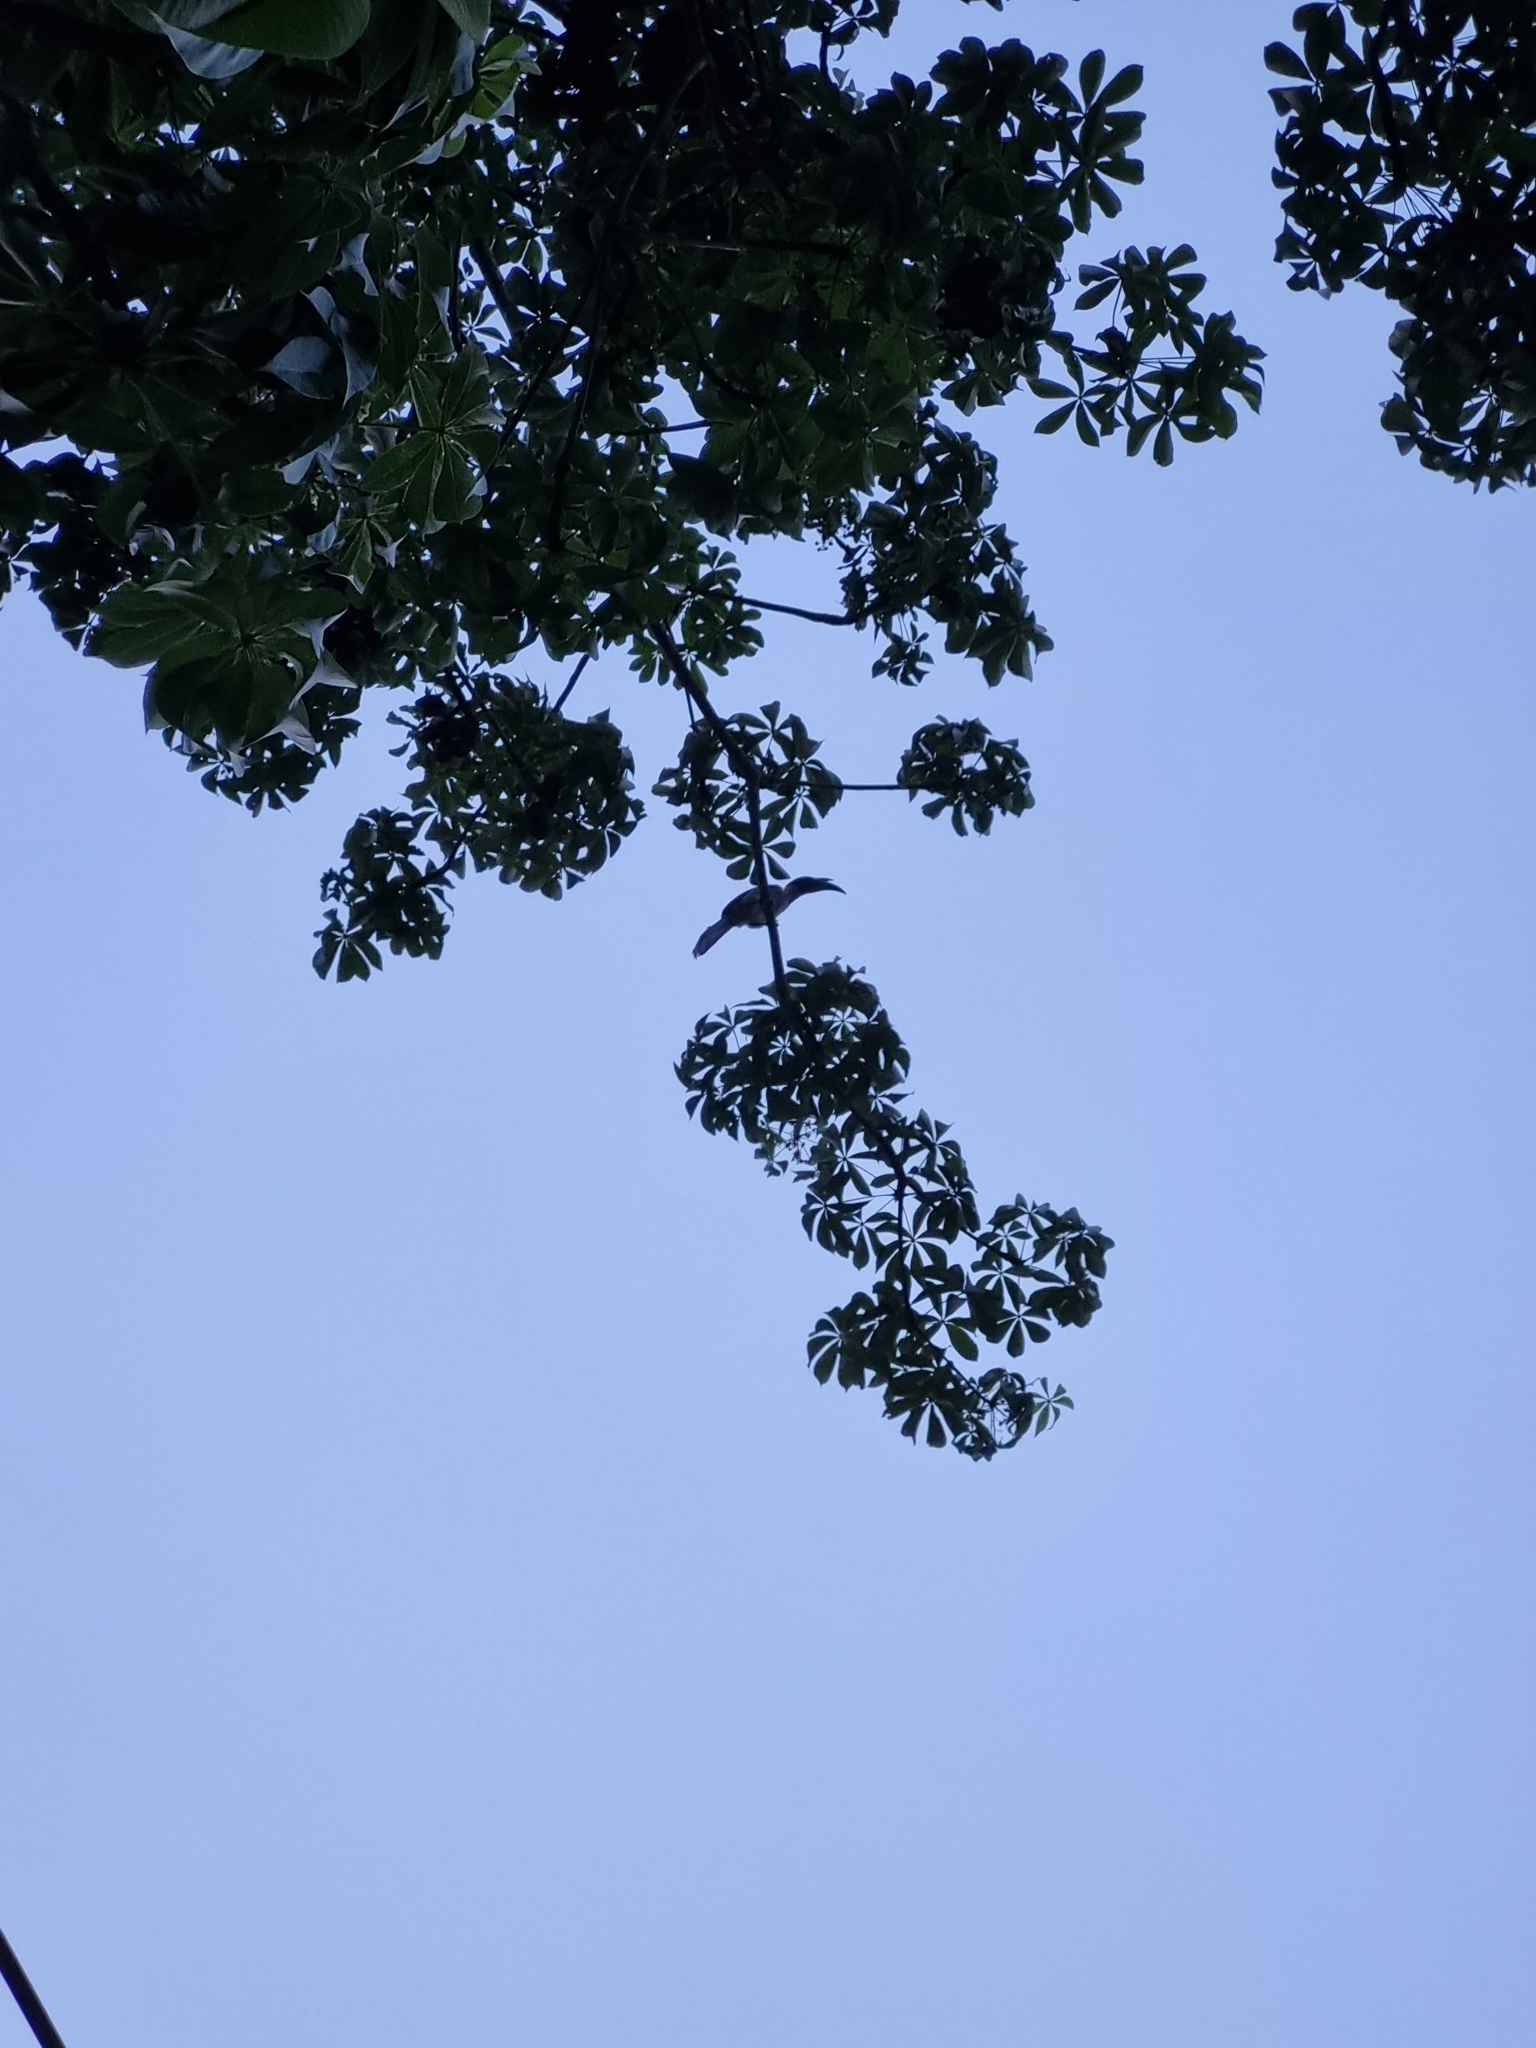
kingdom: Animalia
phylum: Chordata
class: Aves
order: Bucerotiformes
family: Bucerotidae
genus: Ocyceros
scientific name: Ocyceros birostris
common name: Indian grey hornbill
